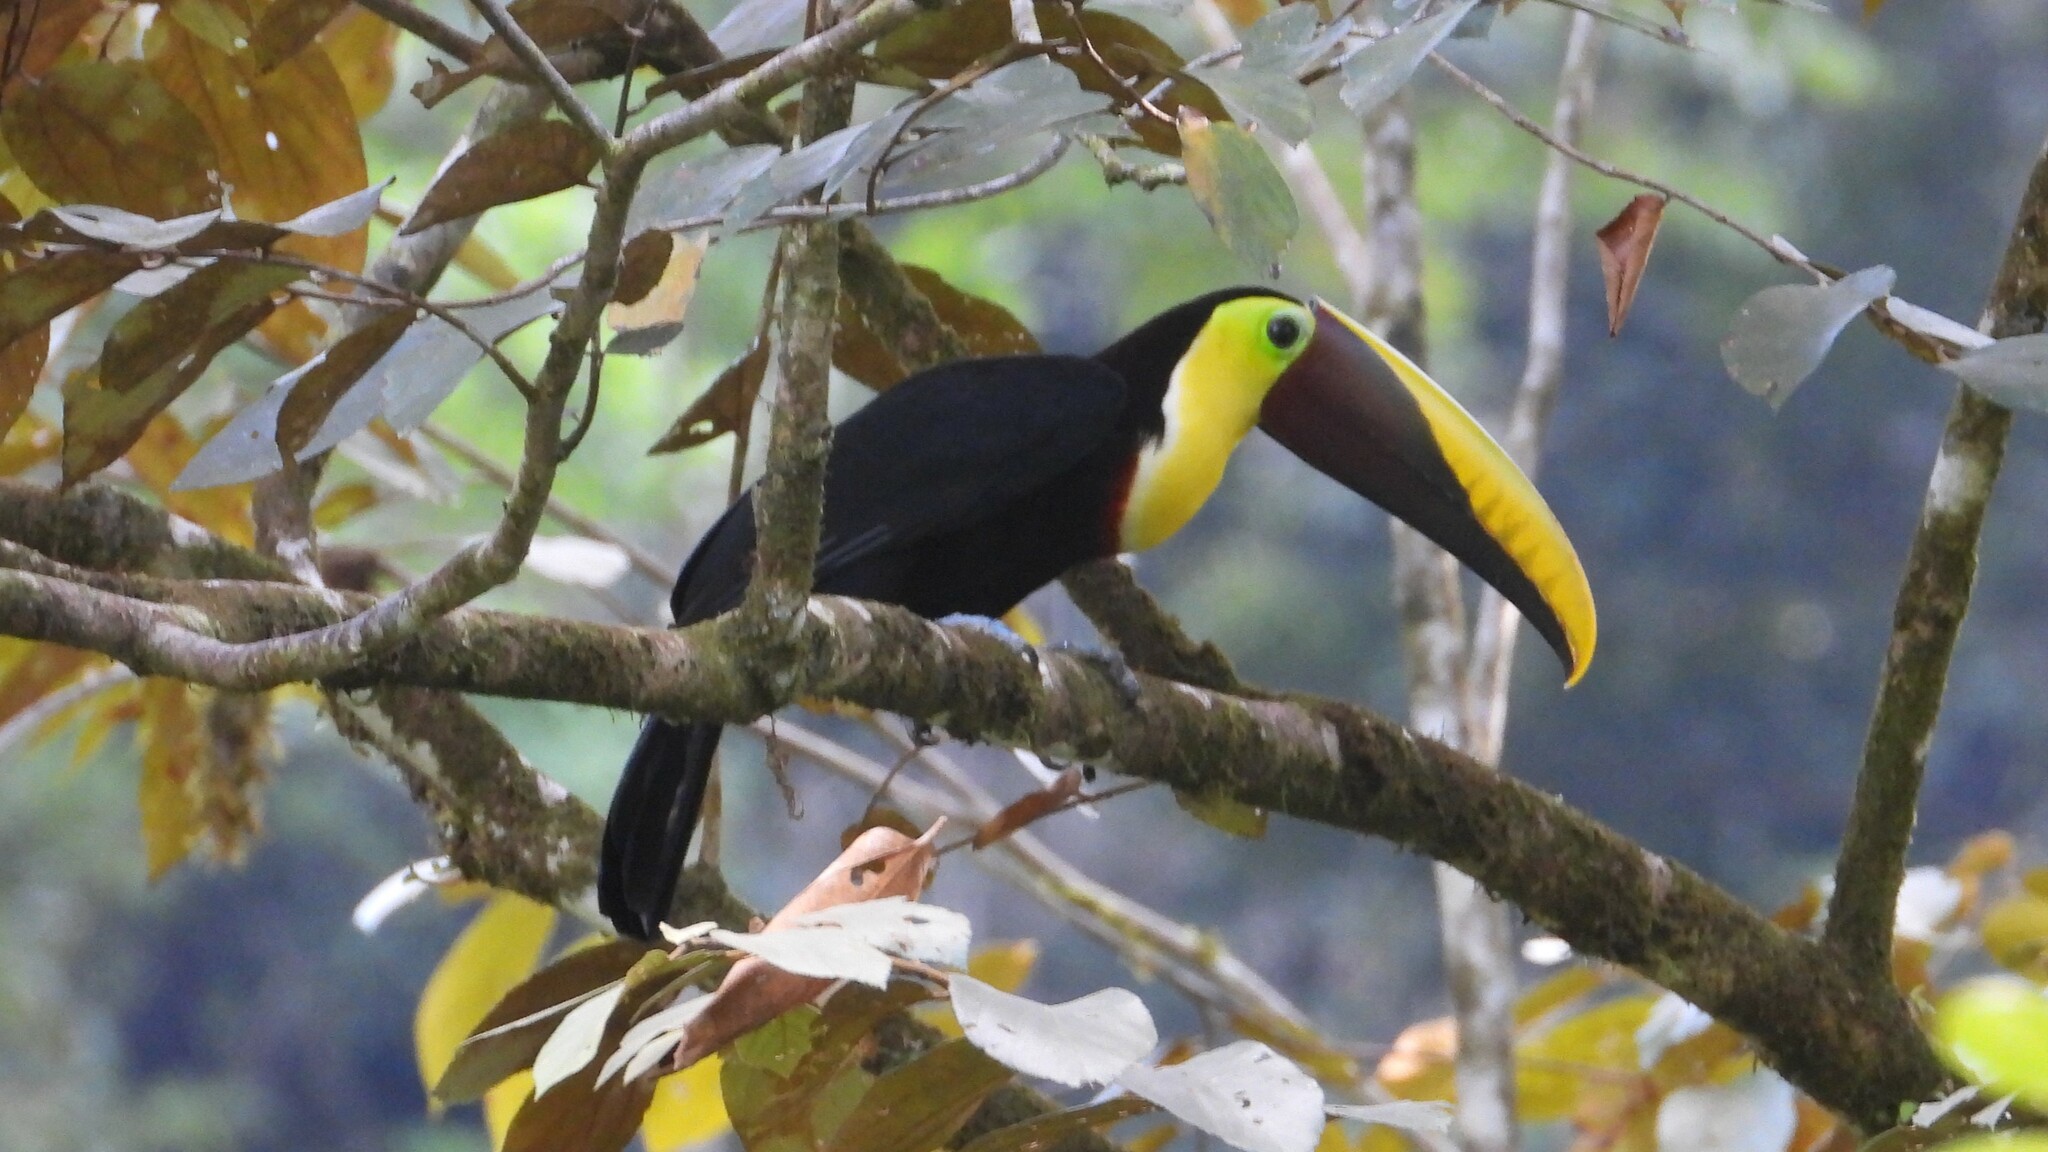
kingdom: Animalia
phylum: Chordata
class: Aves
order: Piciformes
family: Ramphastidae
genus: Ramphastos
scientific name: Ramphastos ambiguus
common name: Yellow-throated toucan
